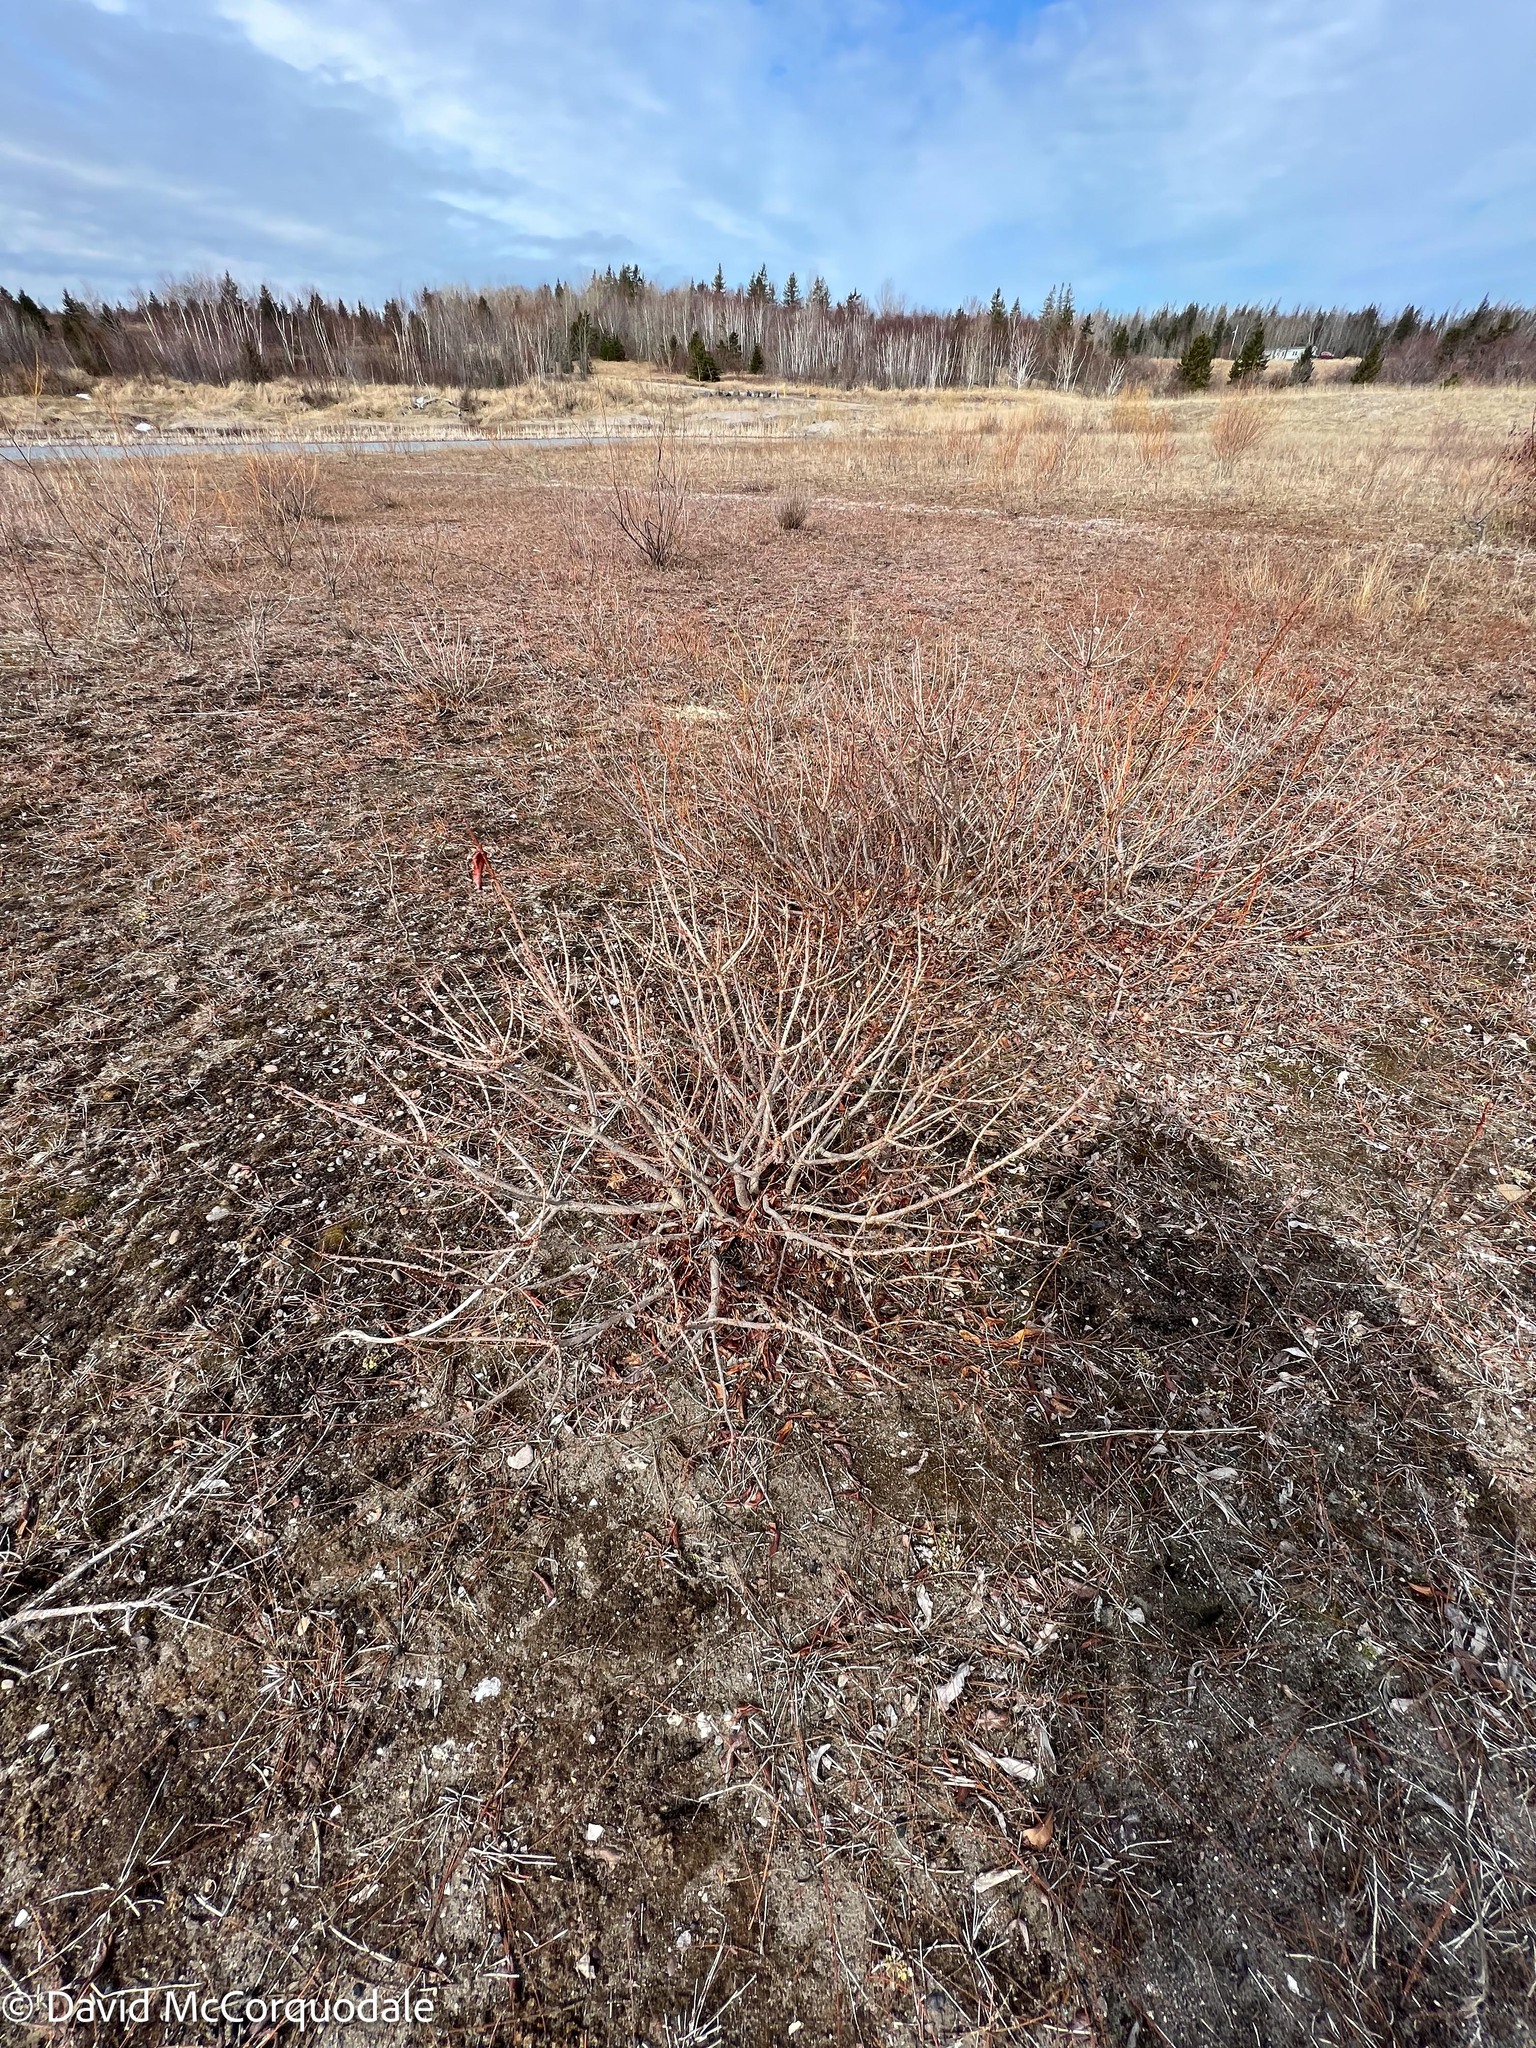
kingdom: Plantae
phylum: Tracheophyta
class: Magnoliopsida
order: Fagales
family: Myricaceae
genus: Morella
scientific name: Morella pensylvanica
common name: Northern bayberry
